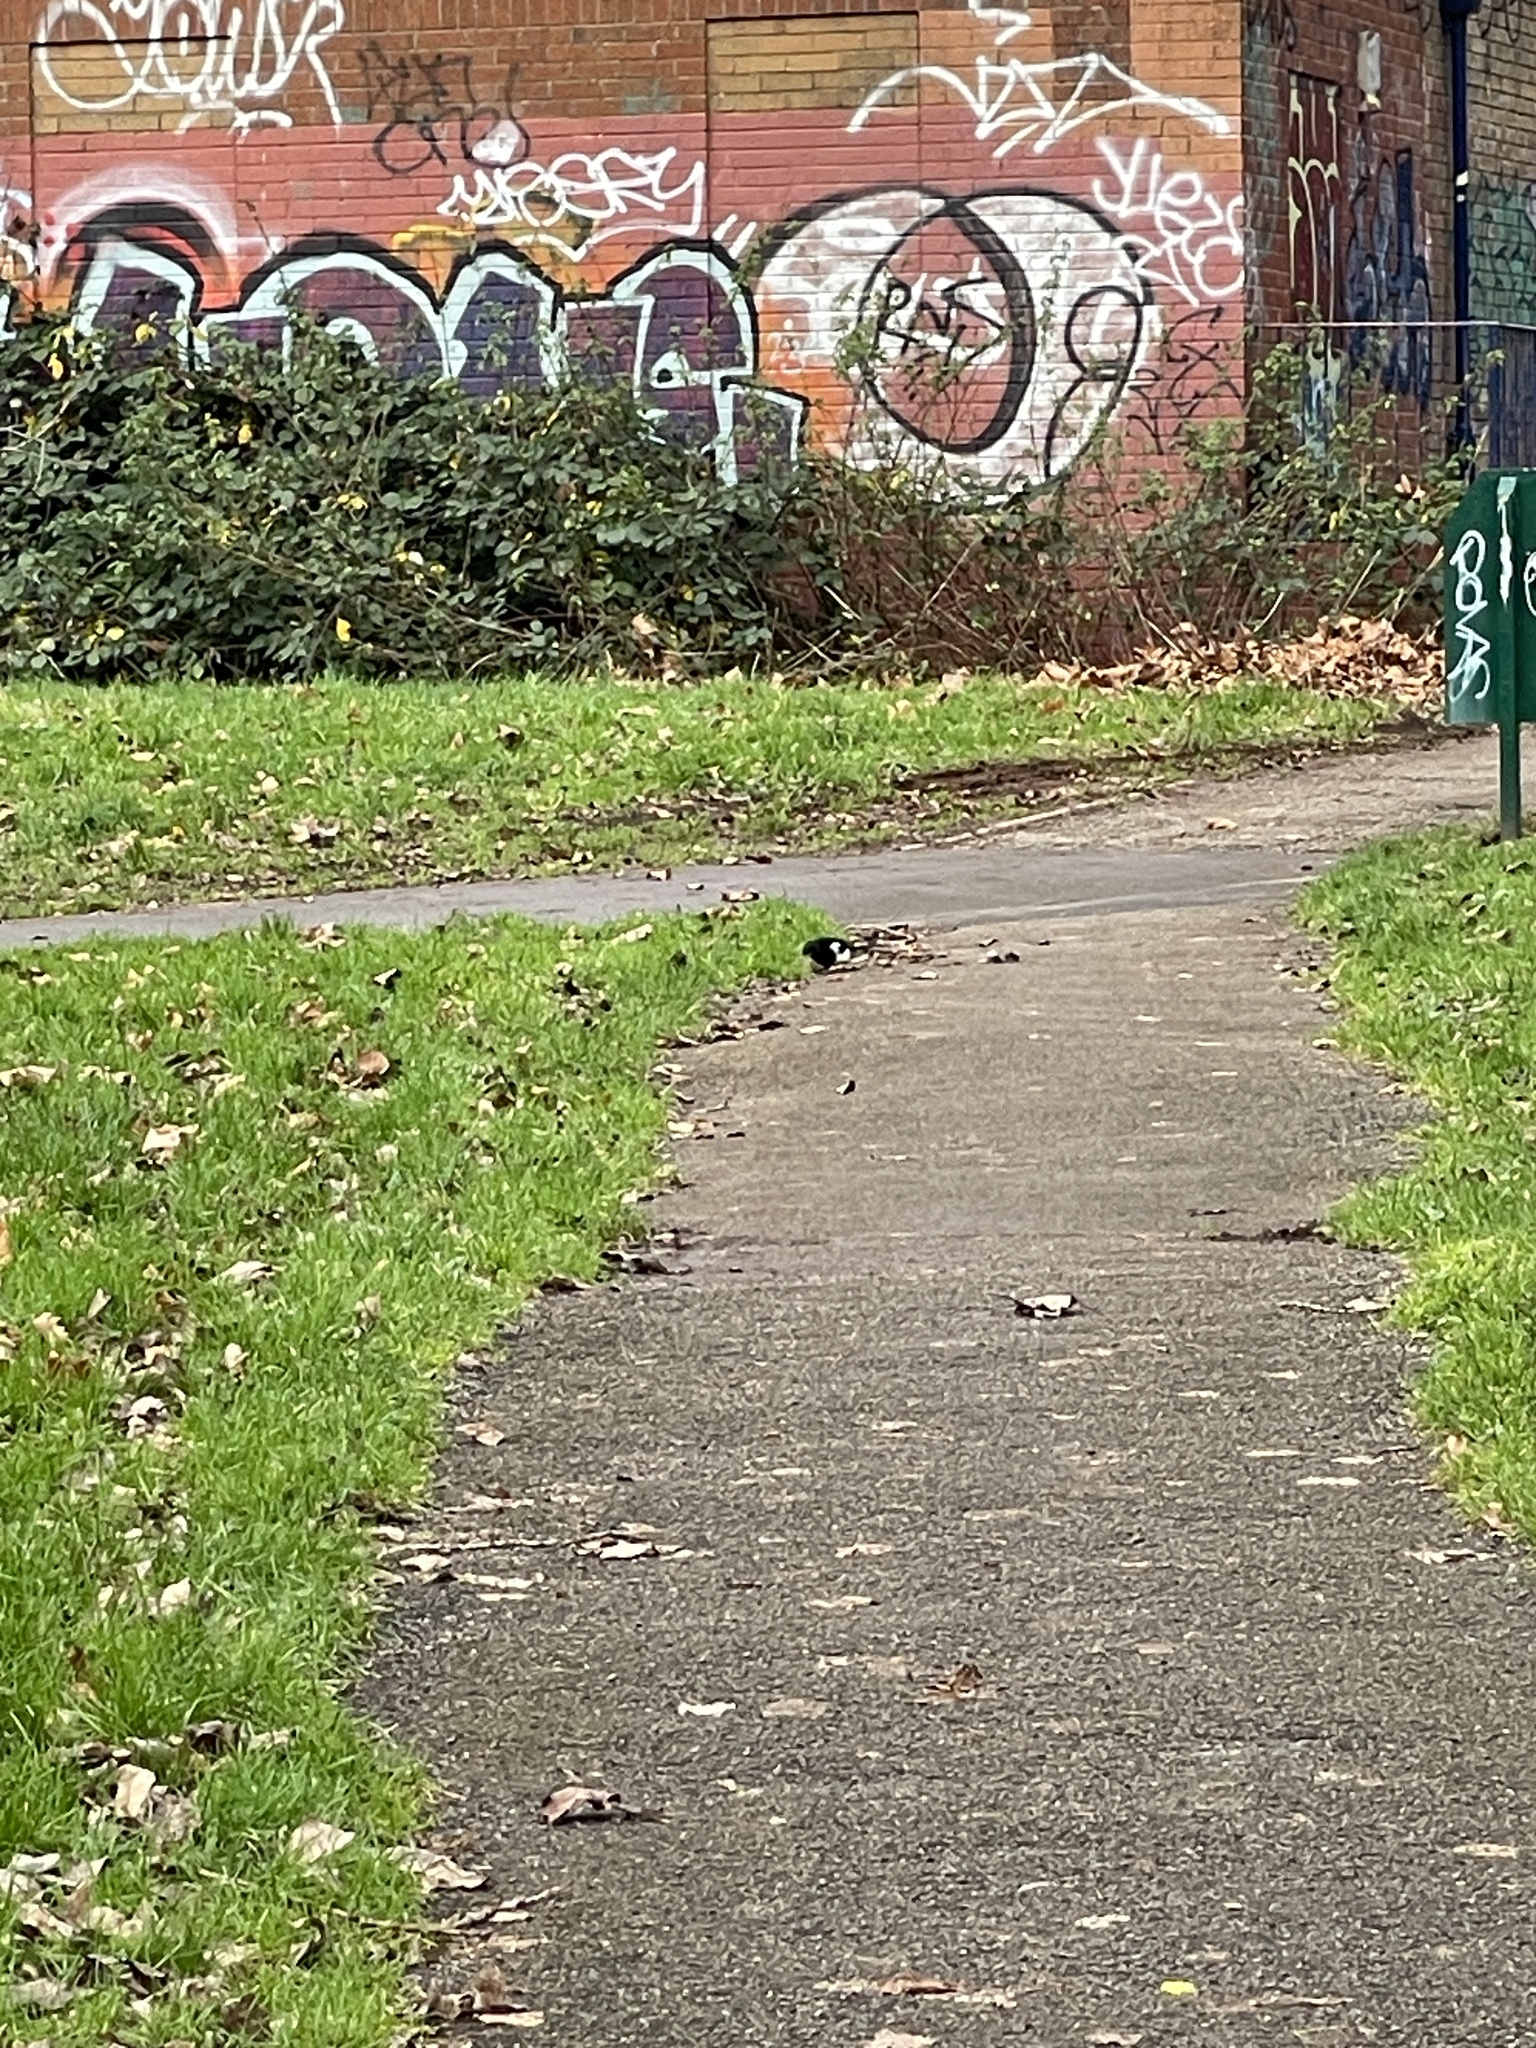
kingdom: Animalia
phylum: Chordata
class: Aves
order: Passeriformes
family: Corvidae
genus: Pica
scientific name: Pica pica
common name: Eurasian magpie
